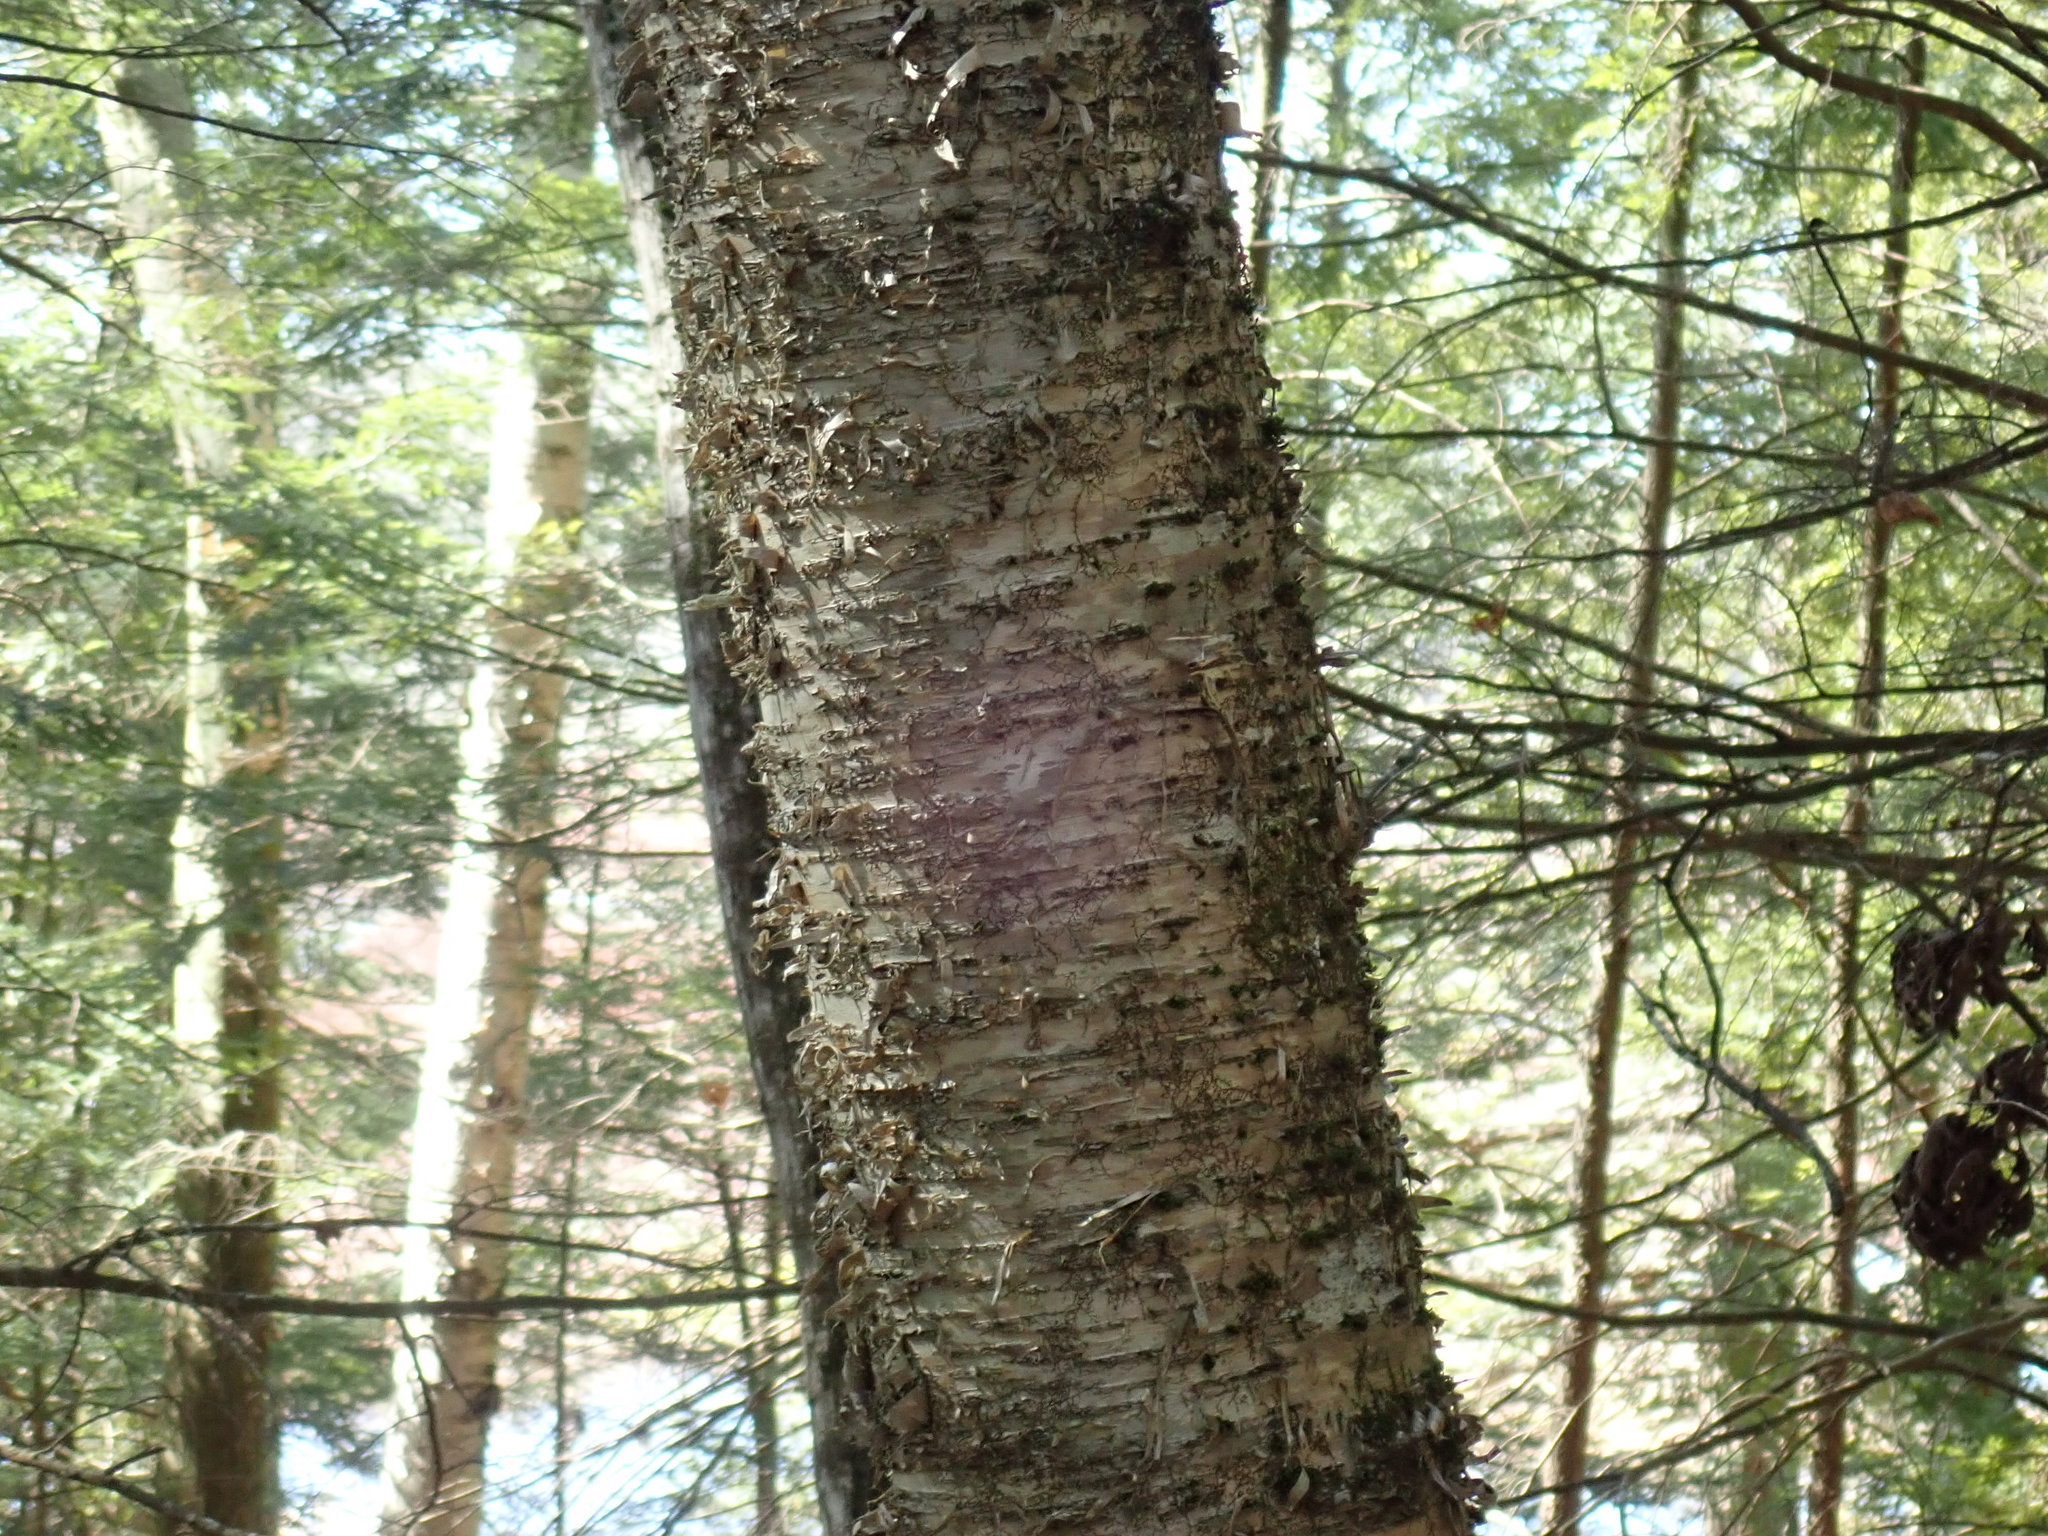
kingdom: Plantae
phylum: Tracheophyta
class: Magnoliopsida
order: Fagales
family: Betulaceae
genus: Betula
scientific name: Betula alleghaniensis
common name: Yellow birch
